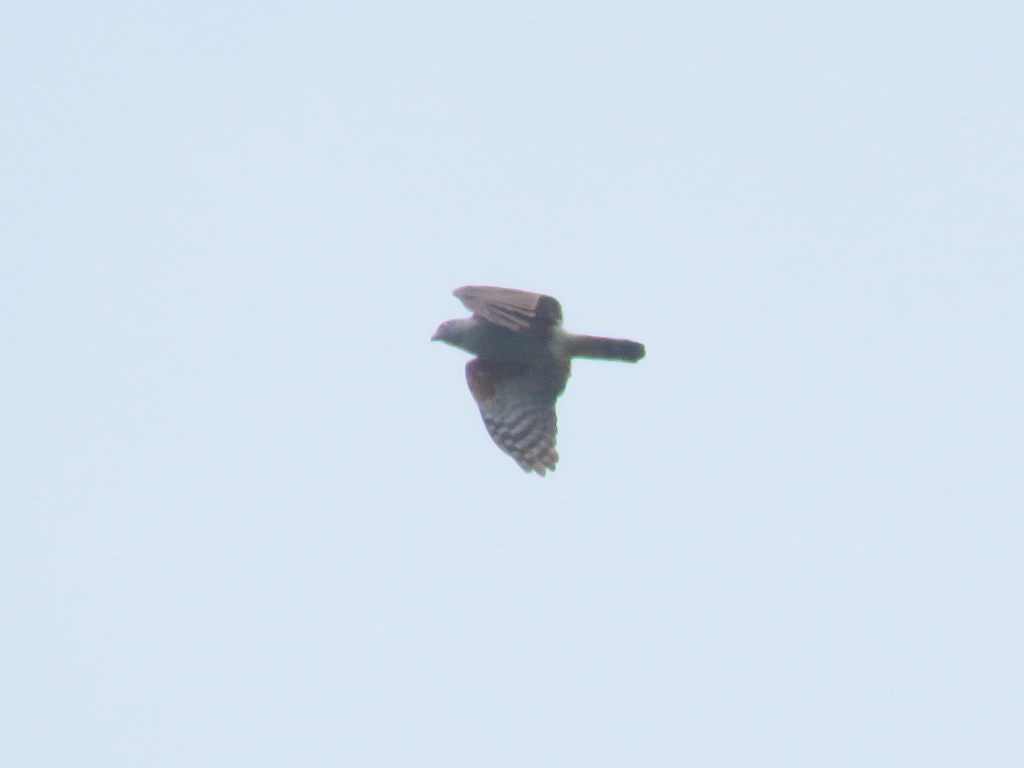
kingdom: Animalia
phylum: Chordata
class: Aves
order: Accipitriformes
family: Accipitridae
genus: Harpagus
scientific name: Harpagus diodon
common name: Rufous-thighed kite
